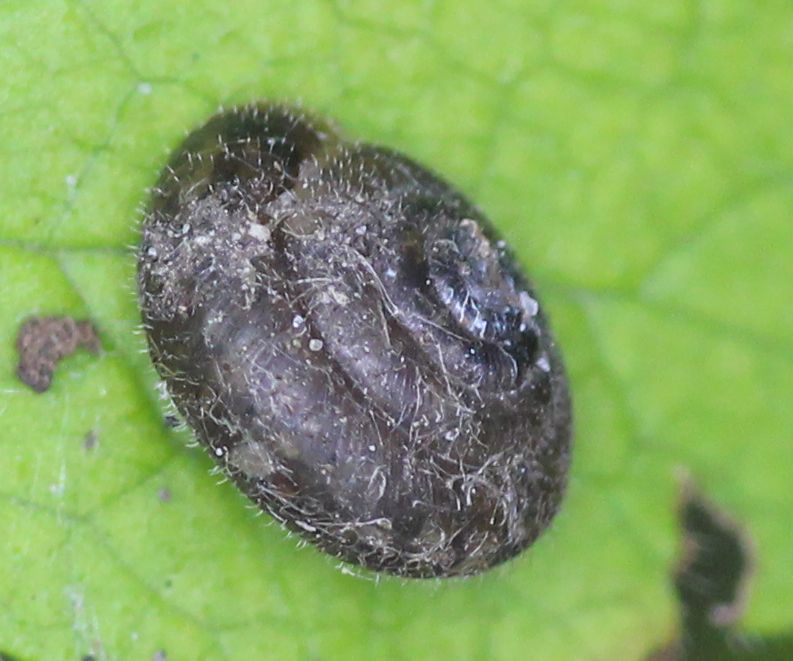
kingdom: Animalia
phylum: Mollusca
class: Gastropoda
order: Stylommatophora
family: Hygromiidae
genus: Trochulus
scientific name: Trochulus hispidus
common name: Hairy snail
